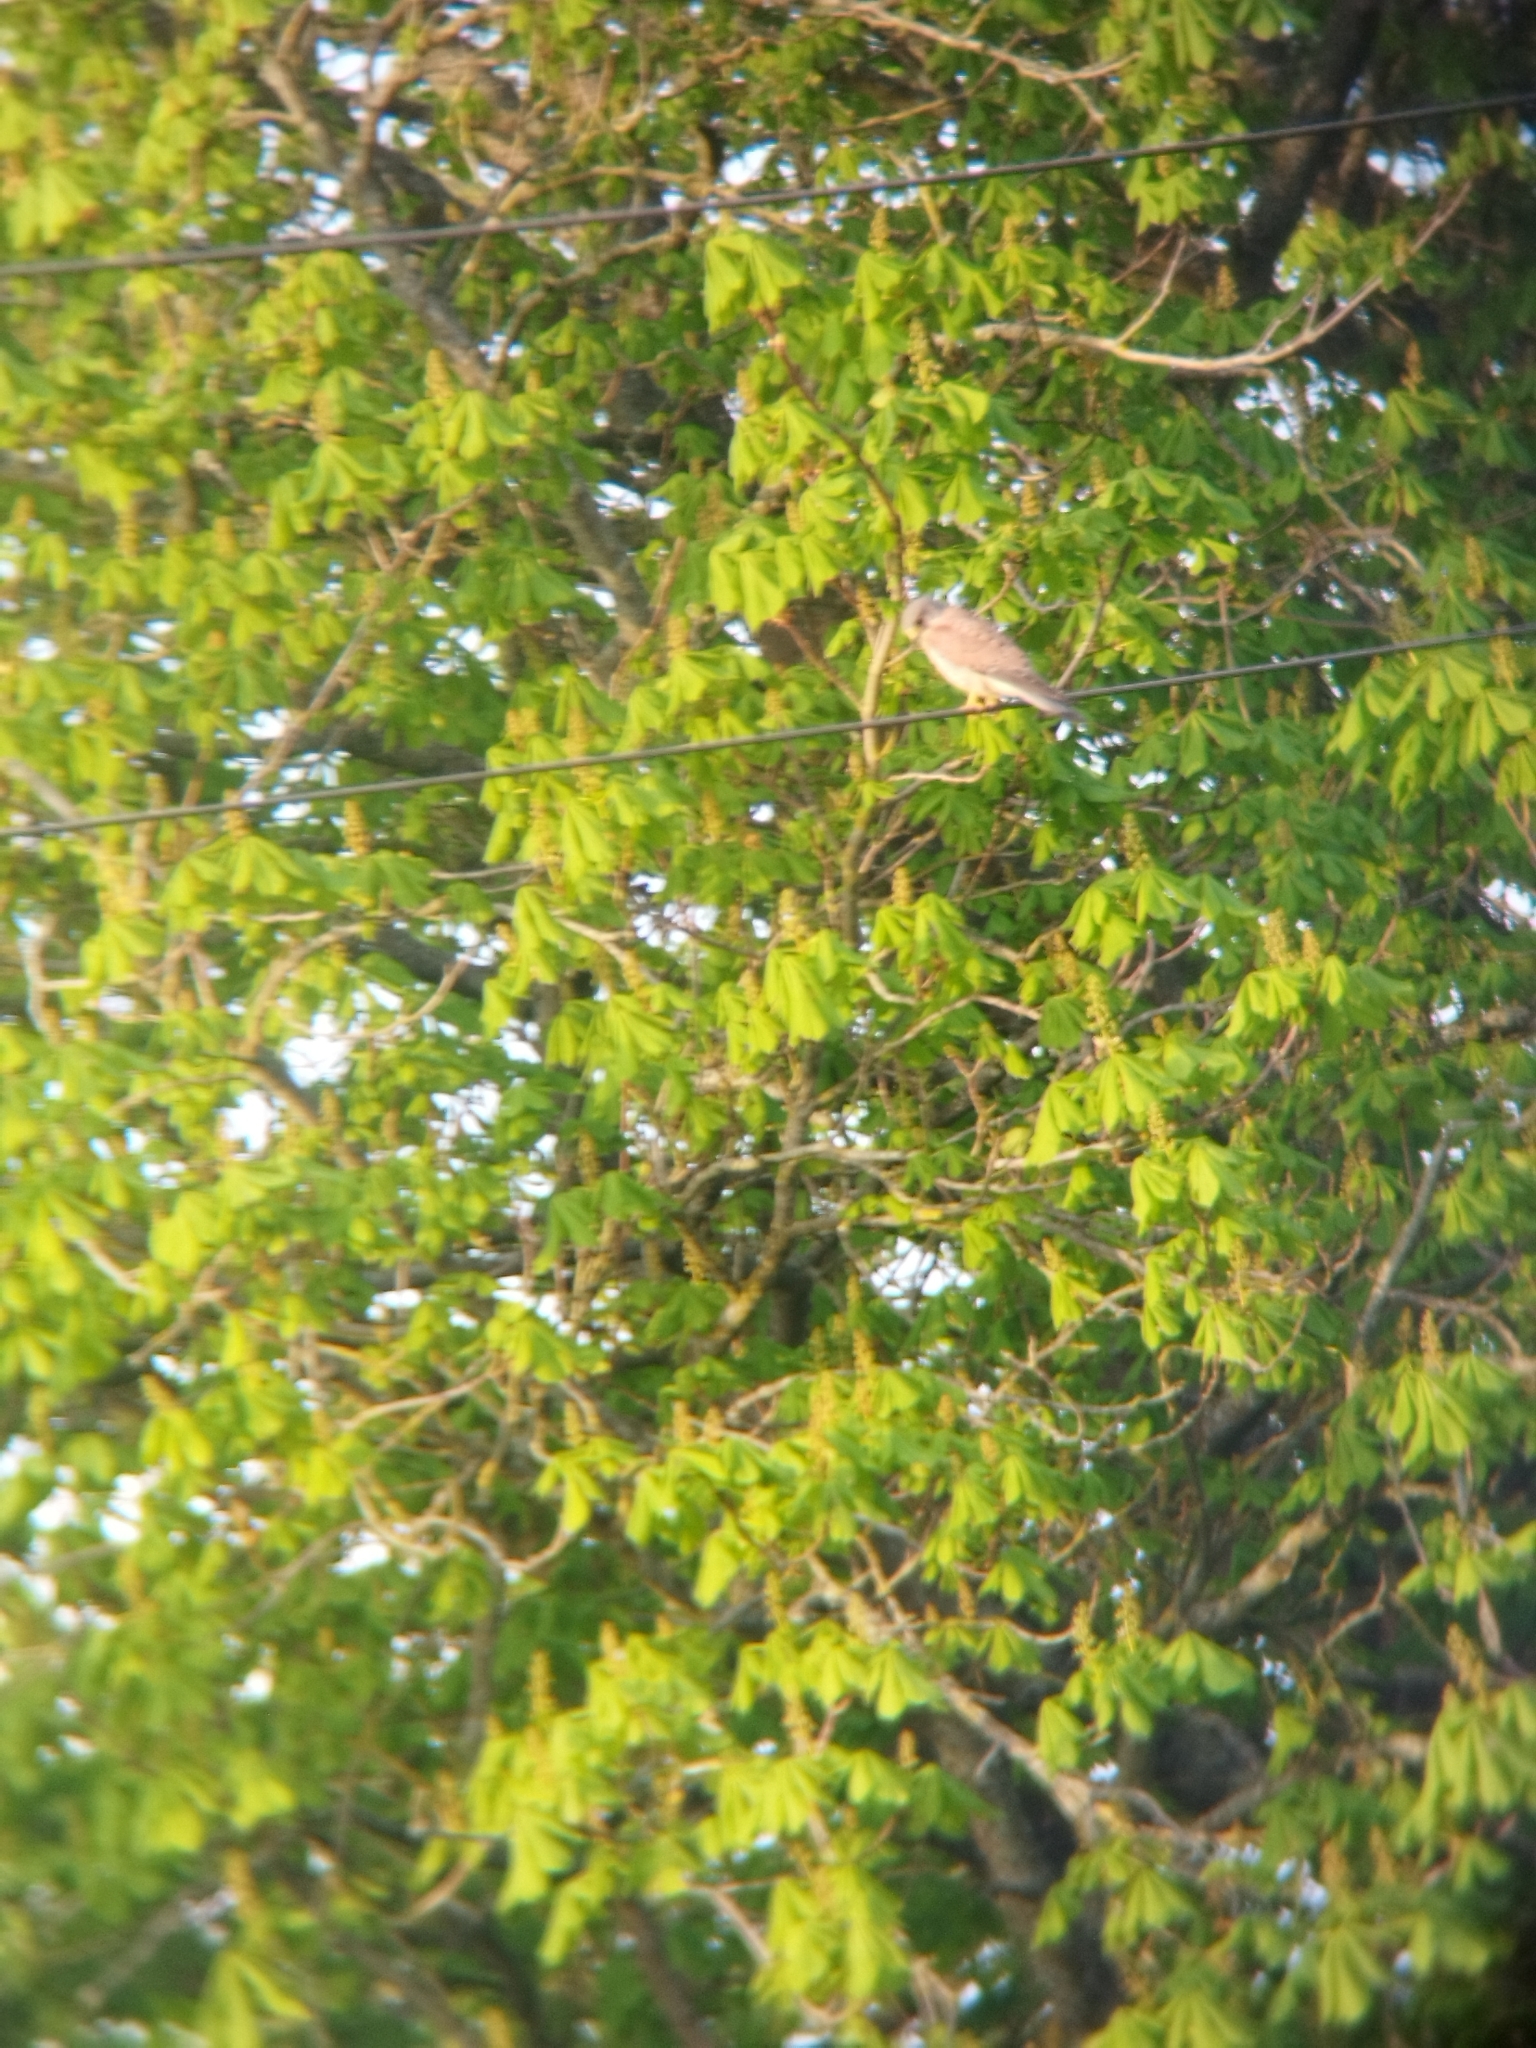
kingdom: Animalia
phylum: Chordata
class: Aves
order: Falconiformes
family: Falconidae
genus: Falco
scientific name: Falco tinnunculus
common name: Common kestrel
